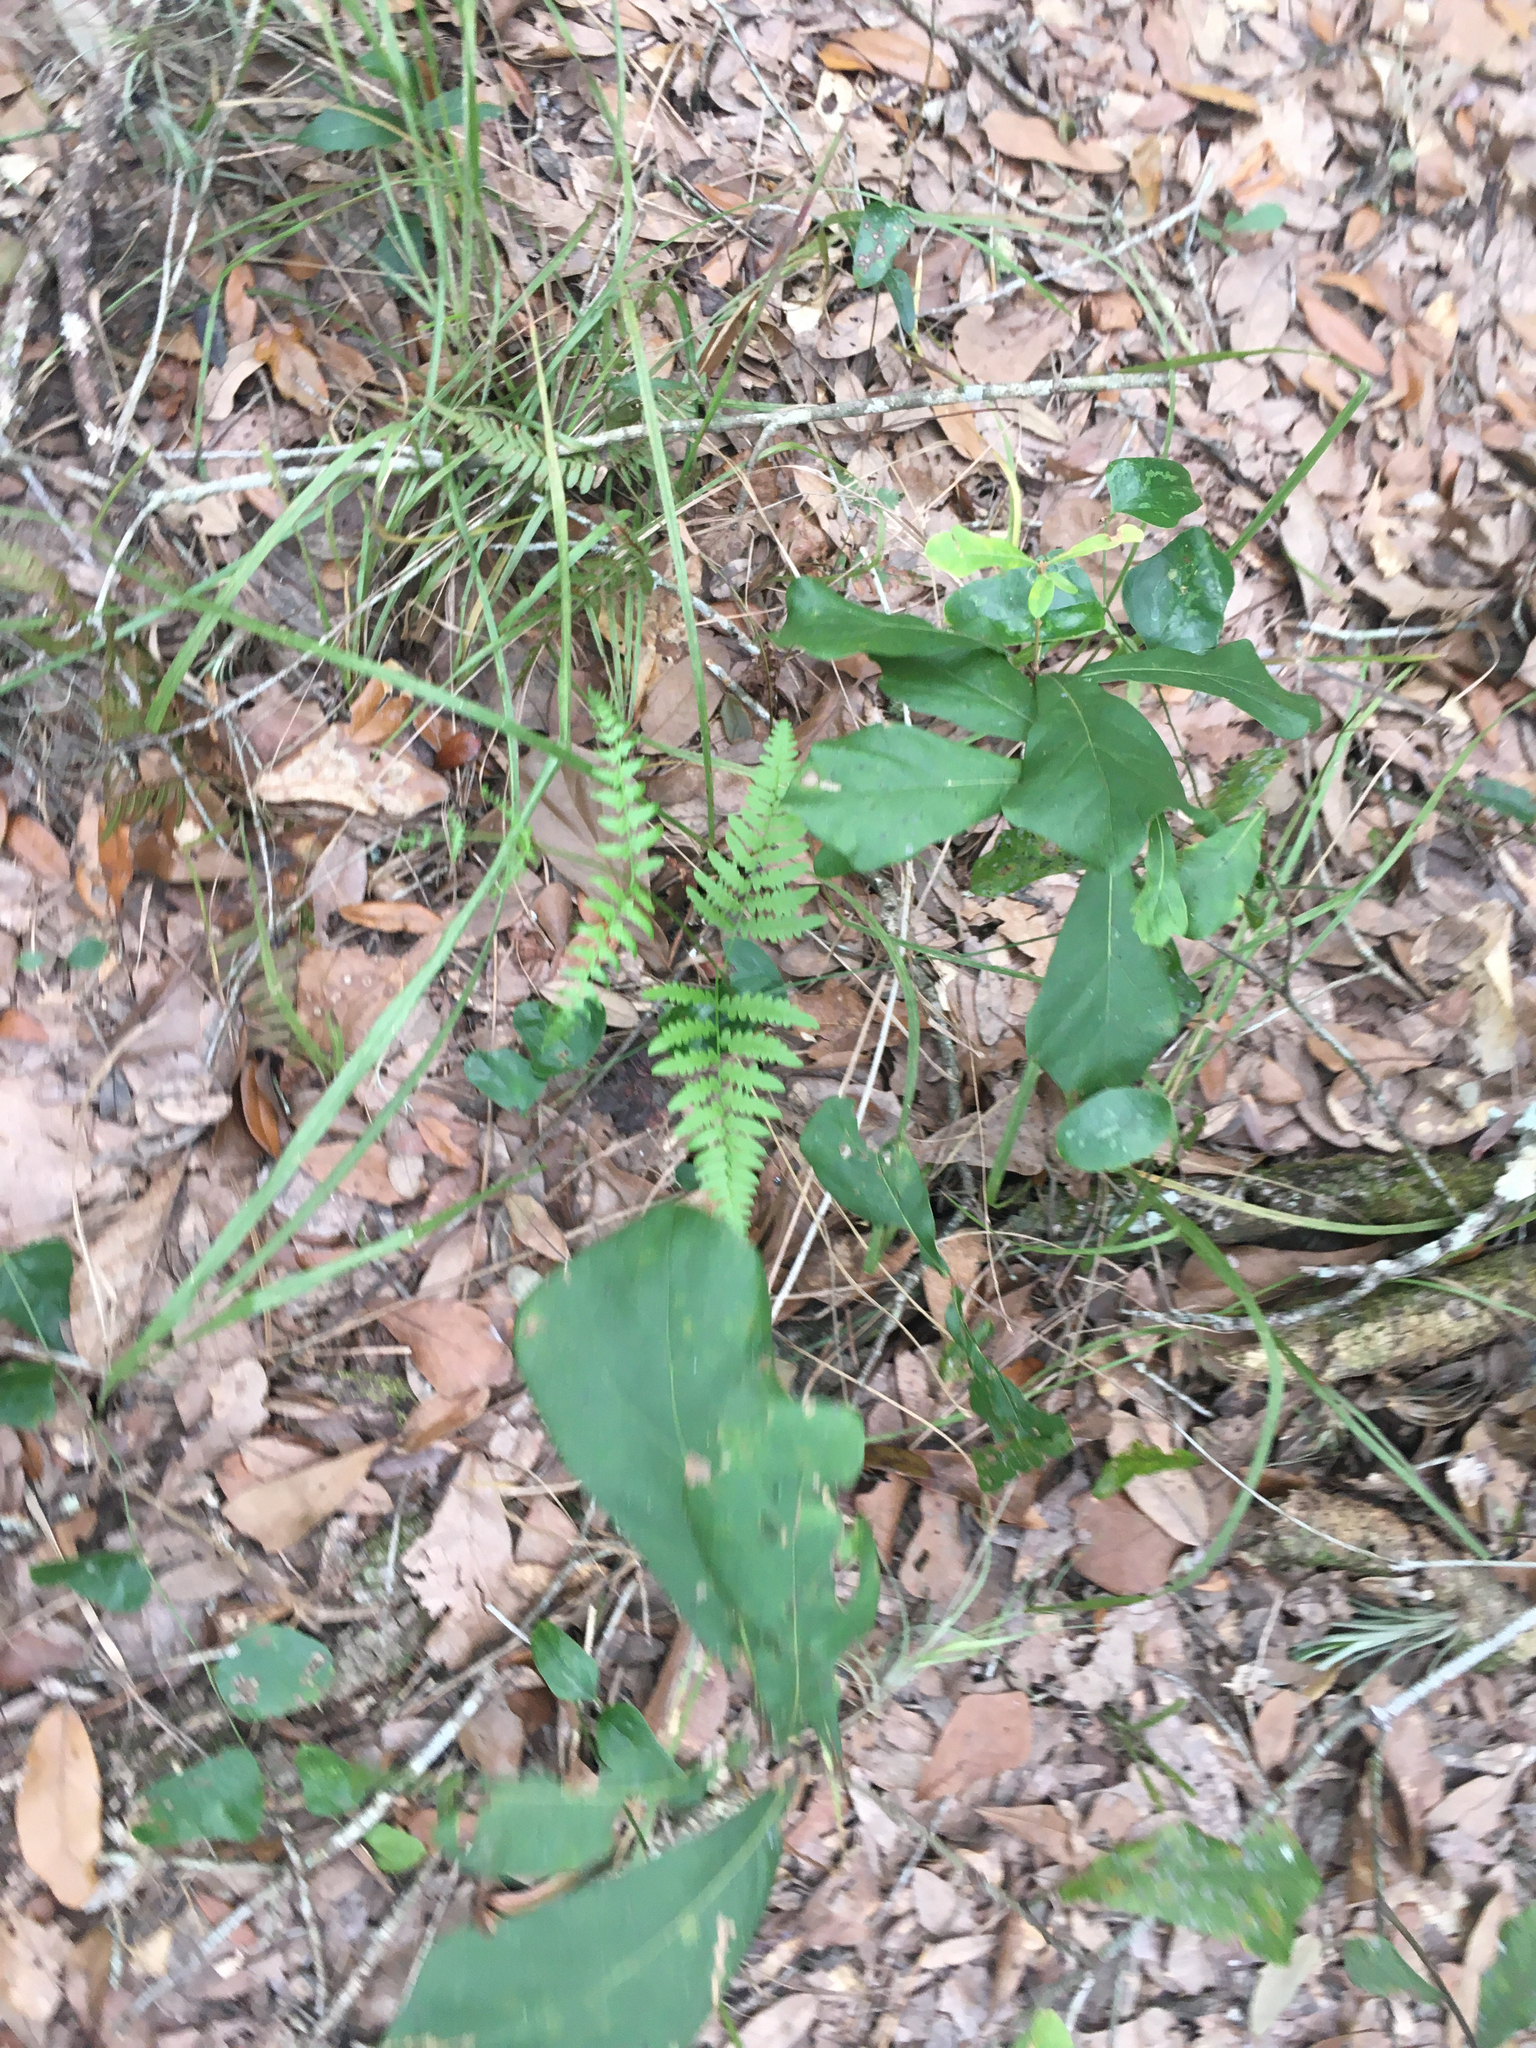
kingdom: Plantae
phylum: Tracheophyta
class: Polypodiopsida
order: Polypodiales
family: Dennstaedtiaceae
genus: Pteridium
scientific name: Pteridium aquilinum
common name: Bracken
